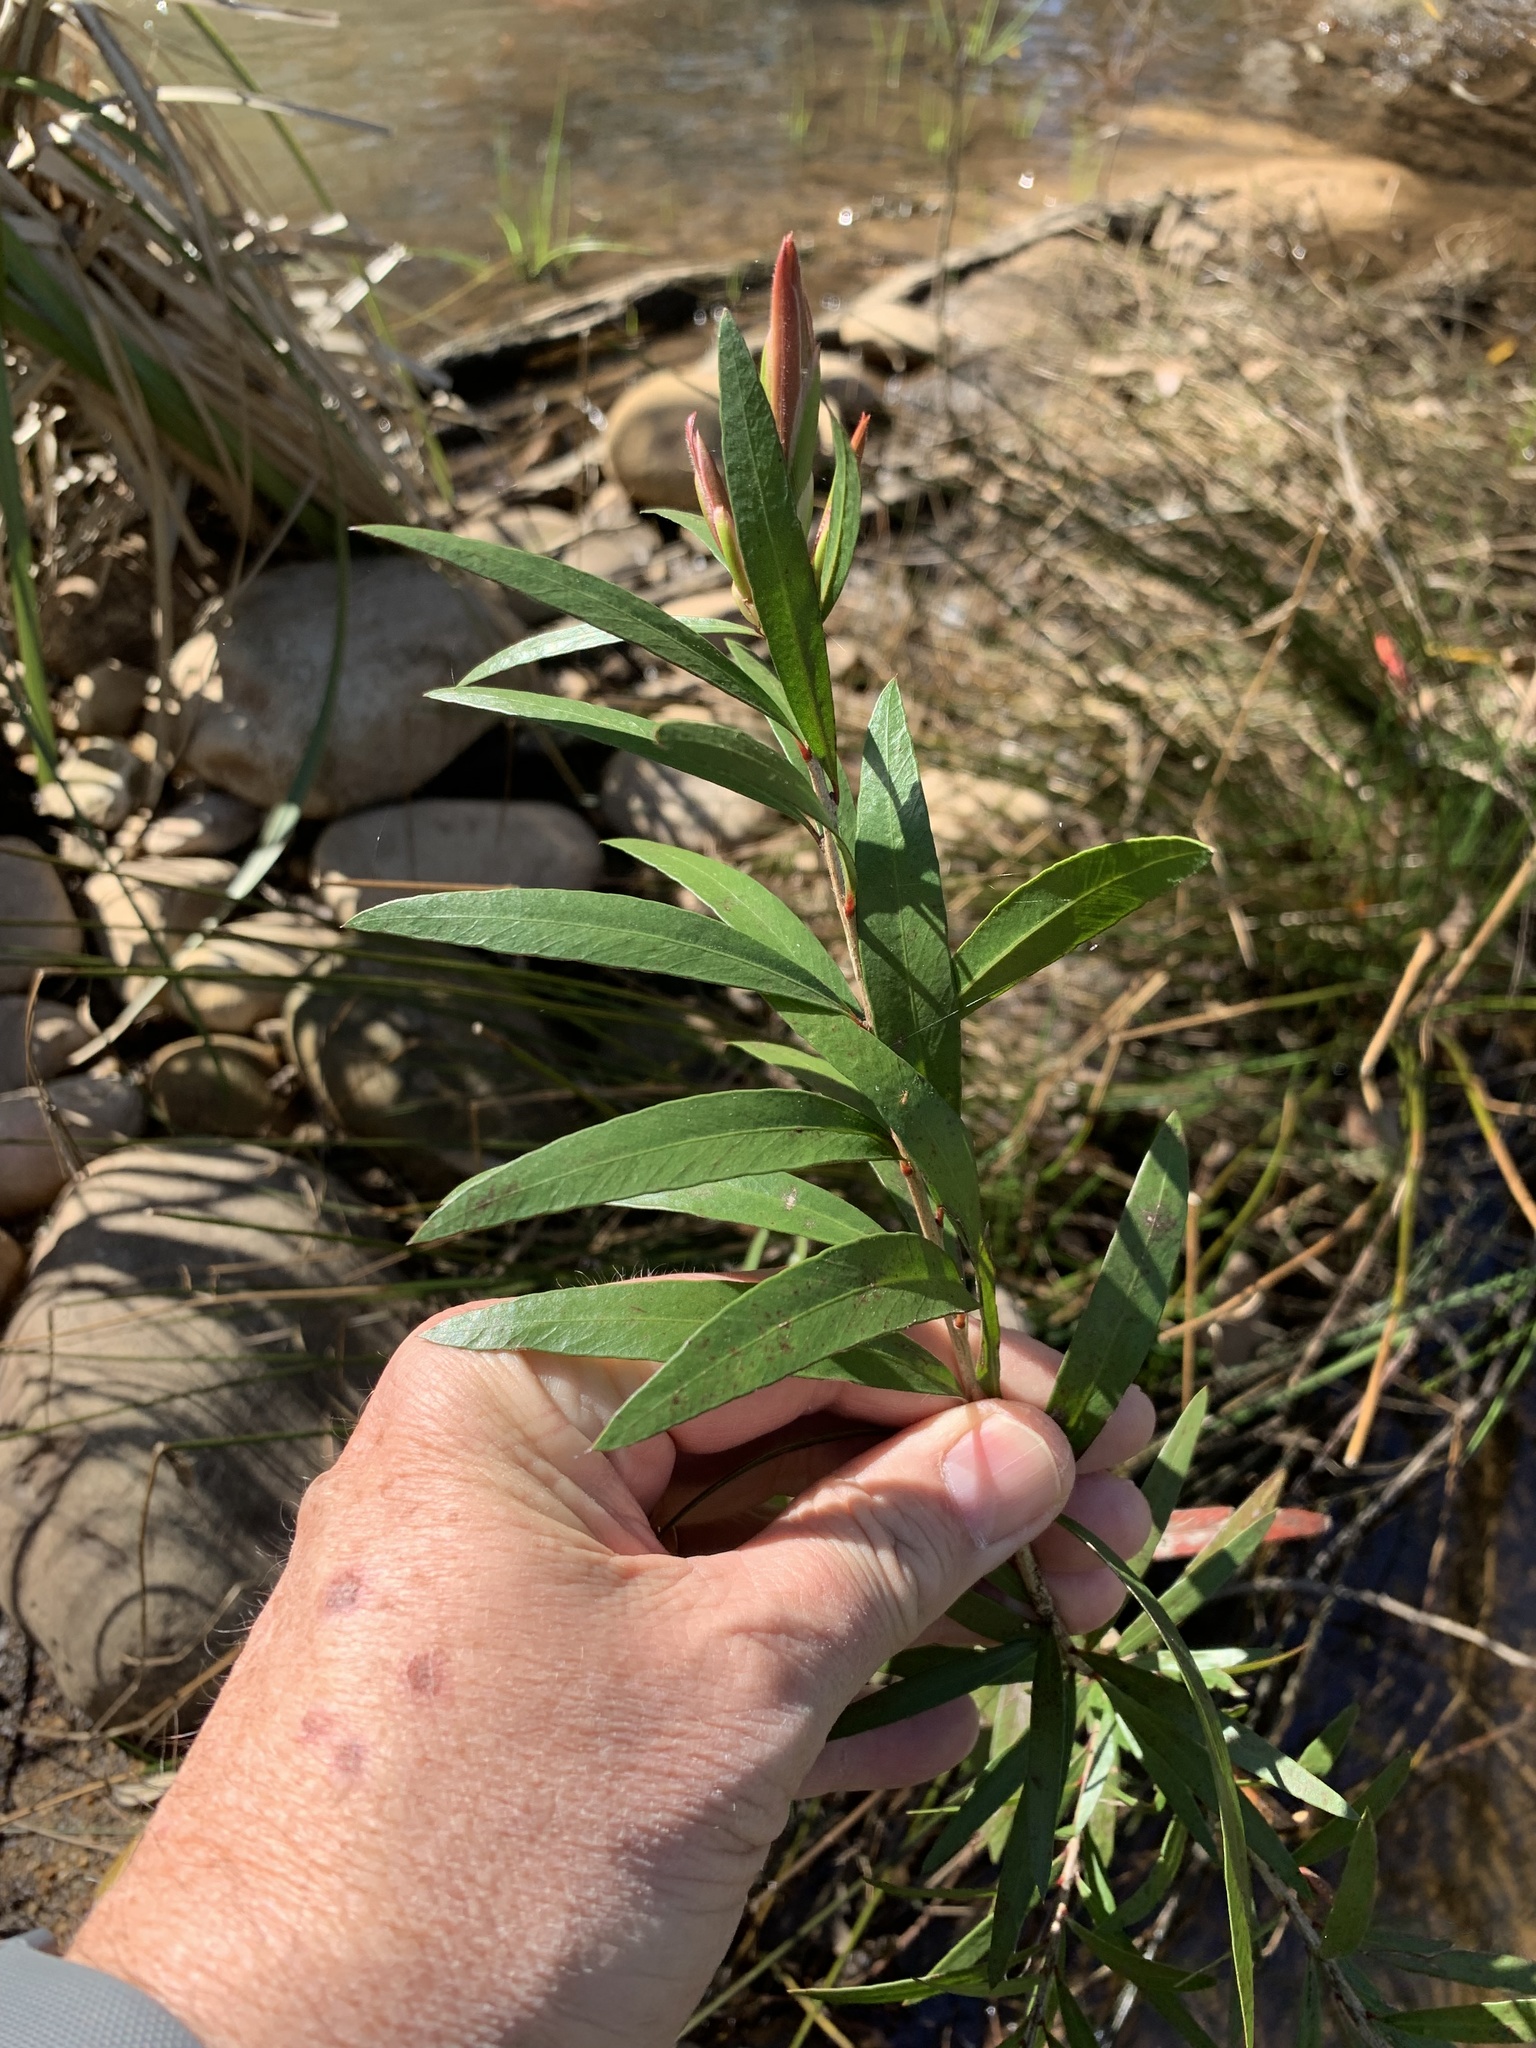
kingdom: Plantae
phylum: Tracheophyta
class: Magnoliopsida
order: Myrtales
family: Myrtaceae
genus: Callistemon
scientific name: Callistemon viminalis
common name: Drooping bottlebrush
